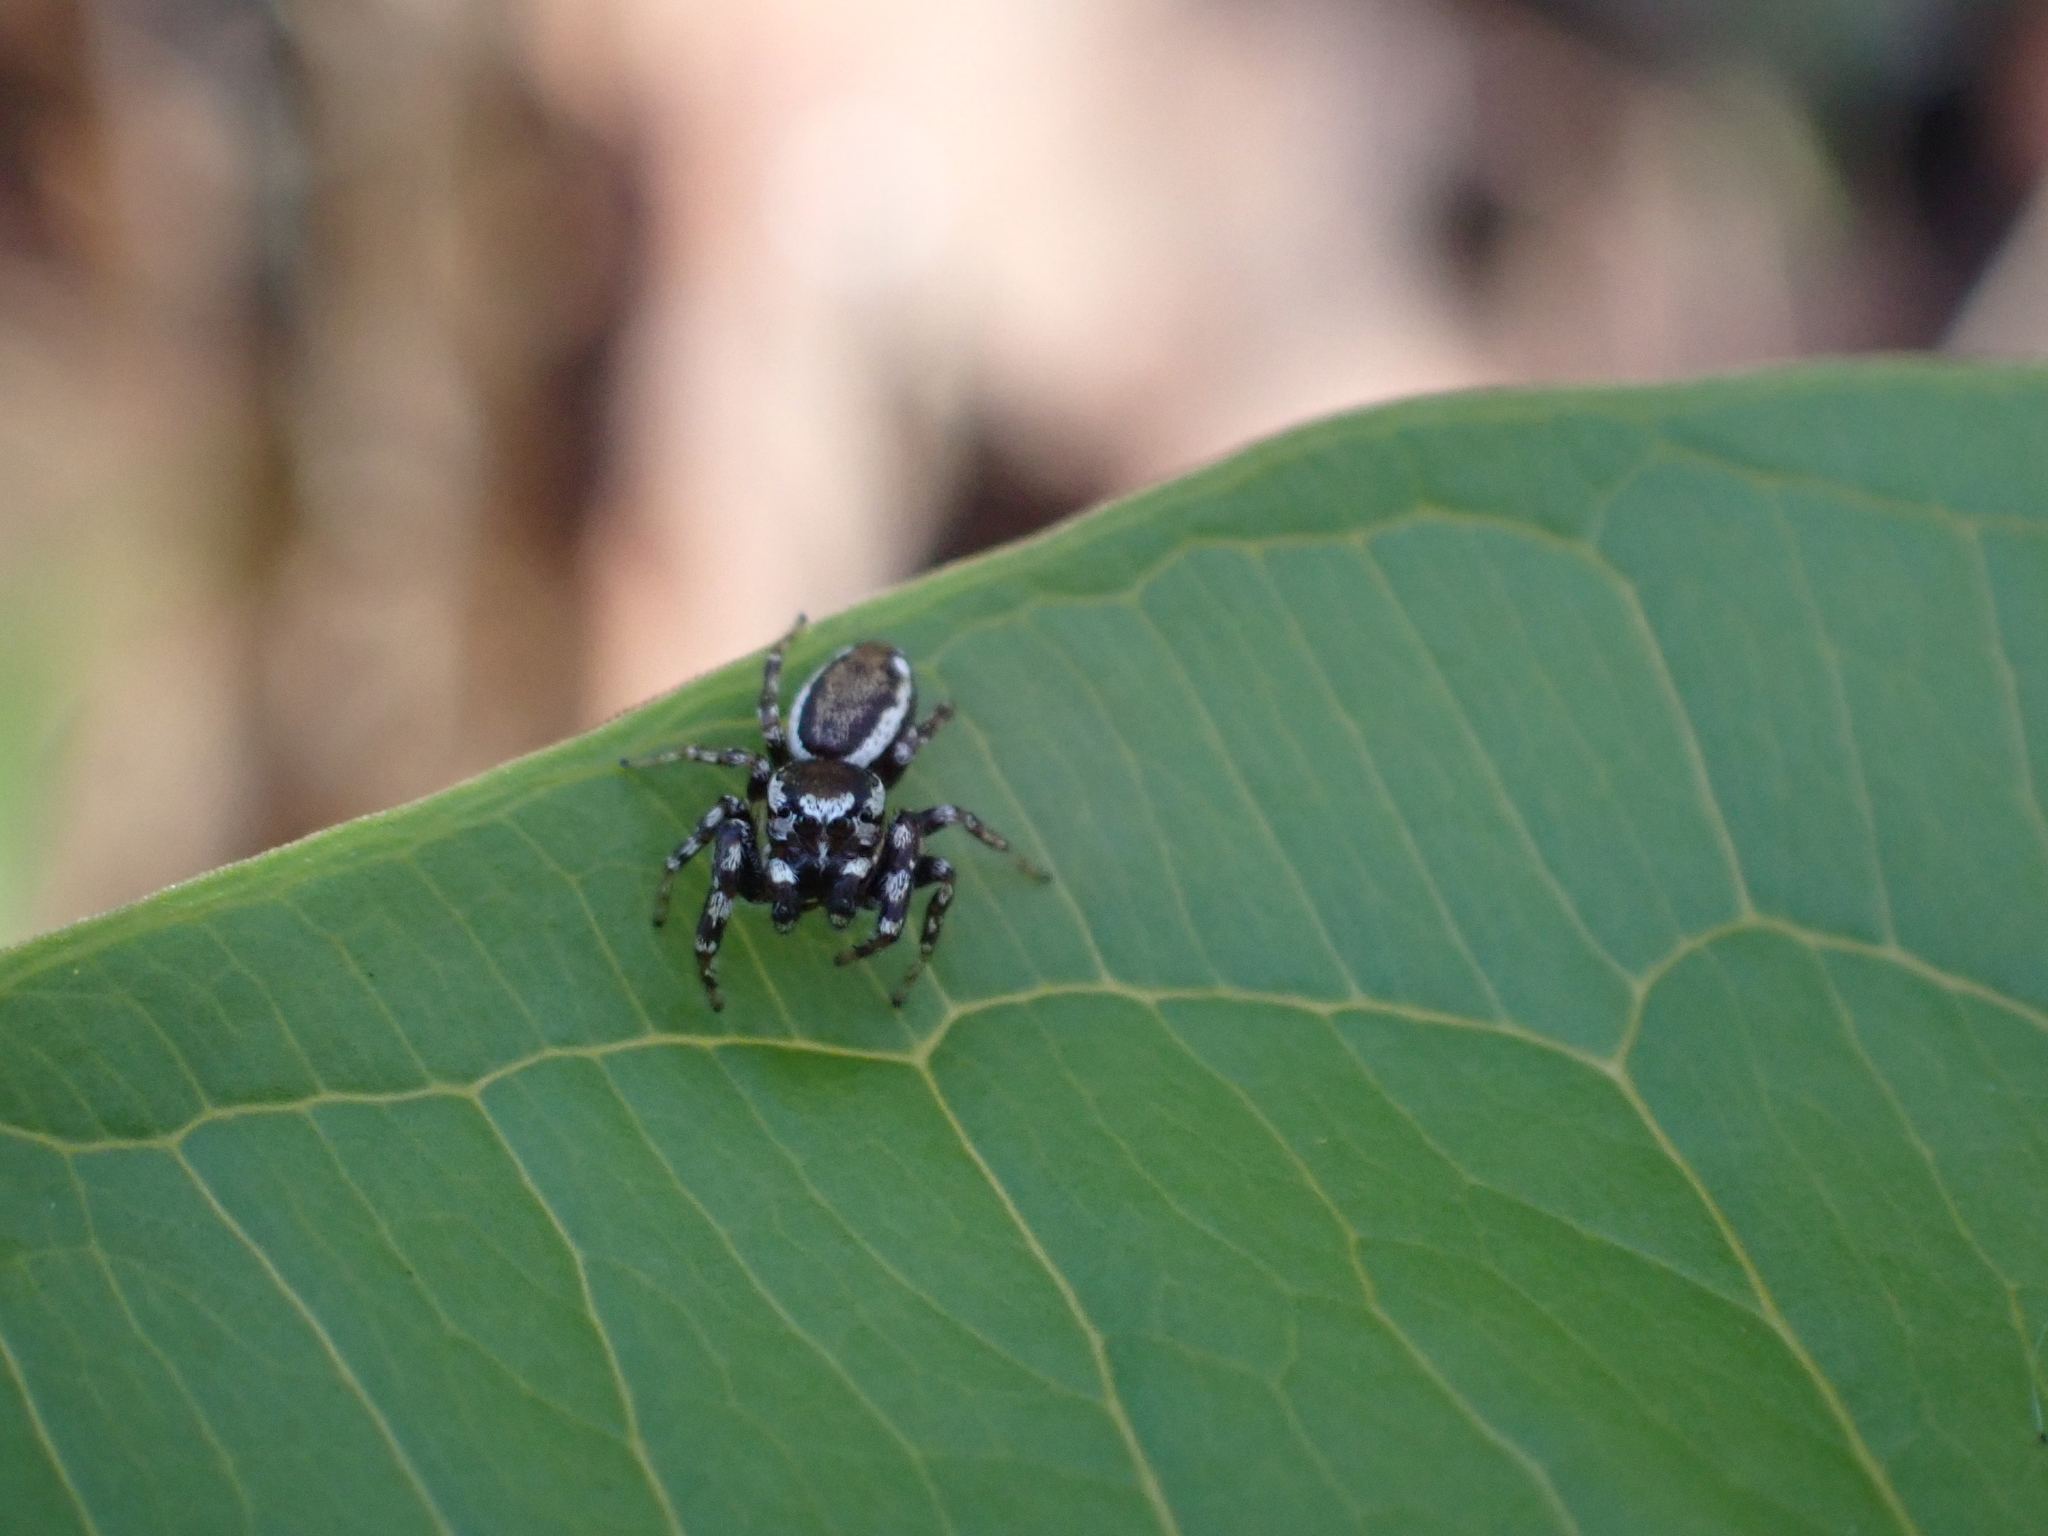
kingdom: Animalia
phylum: Arthropoda
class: Arachnida
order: Araneae
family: Salticidae
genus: Pelegrina
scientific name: Pelegrina proterva
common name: Common white-cheeked jumping spider
